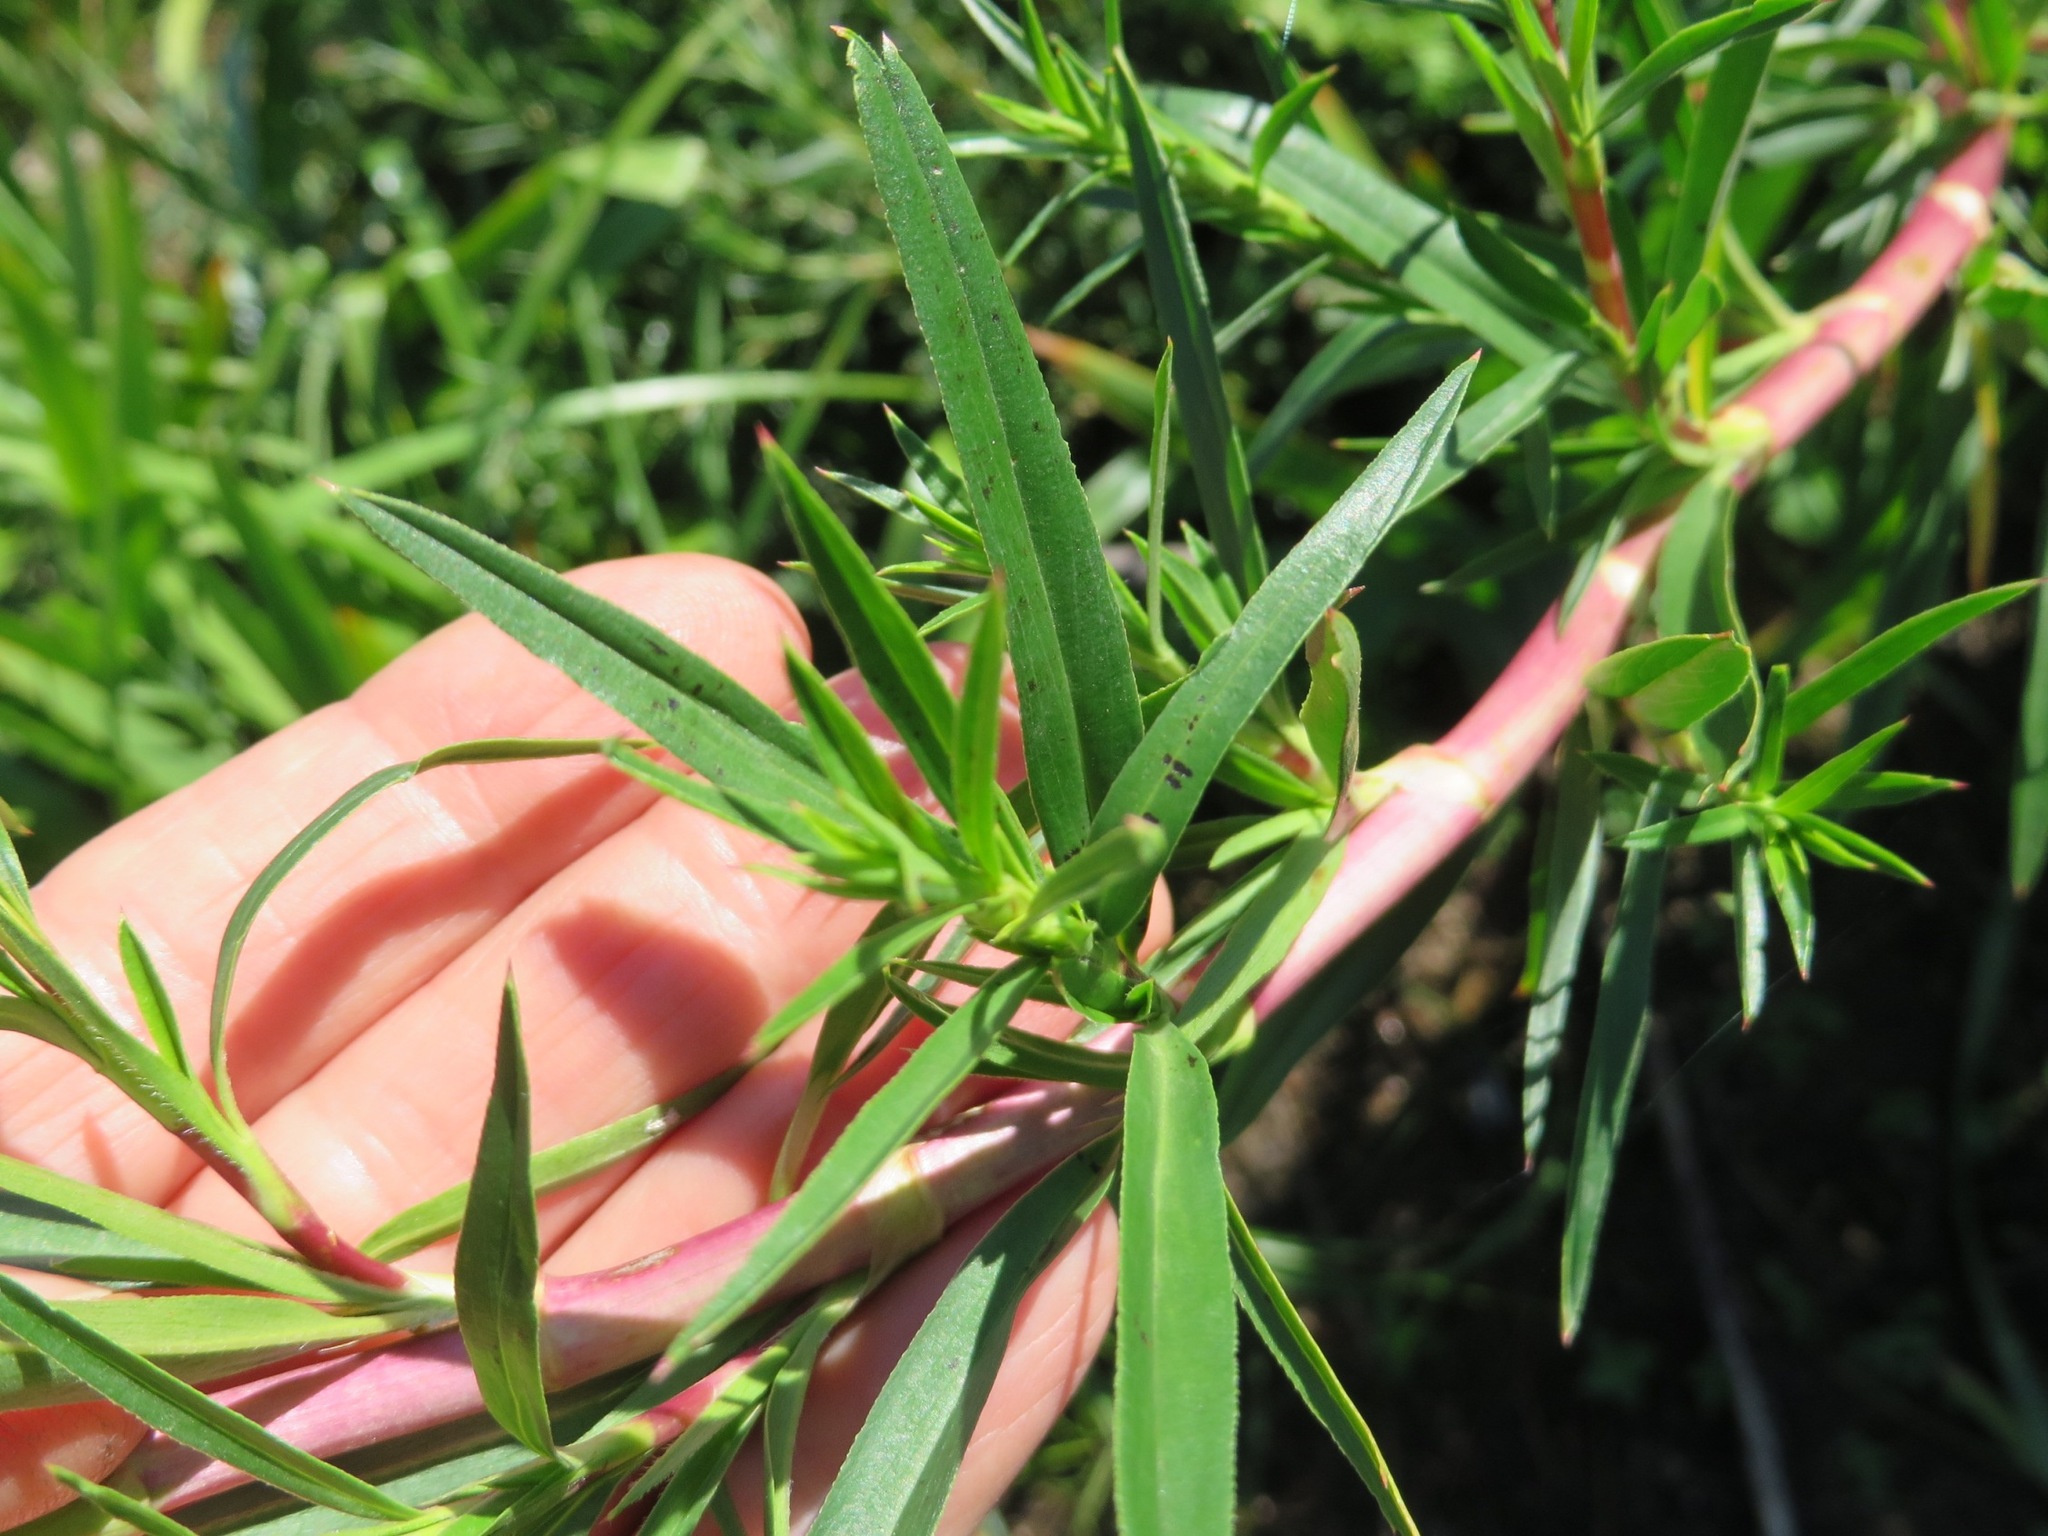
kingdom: Plantae
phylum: Tracheophyta
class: Magnoliopsida
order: Rosales
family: Rosaceae
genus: Cliffortia
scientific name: Cliffortia strobilifera
